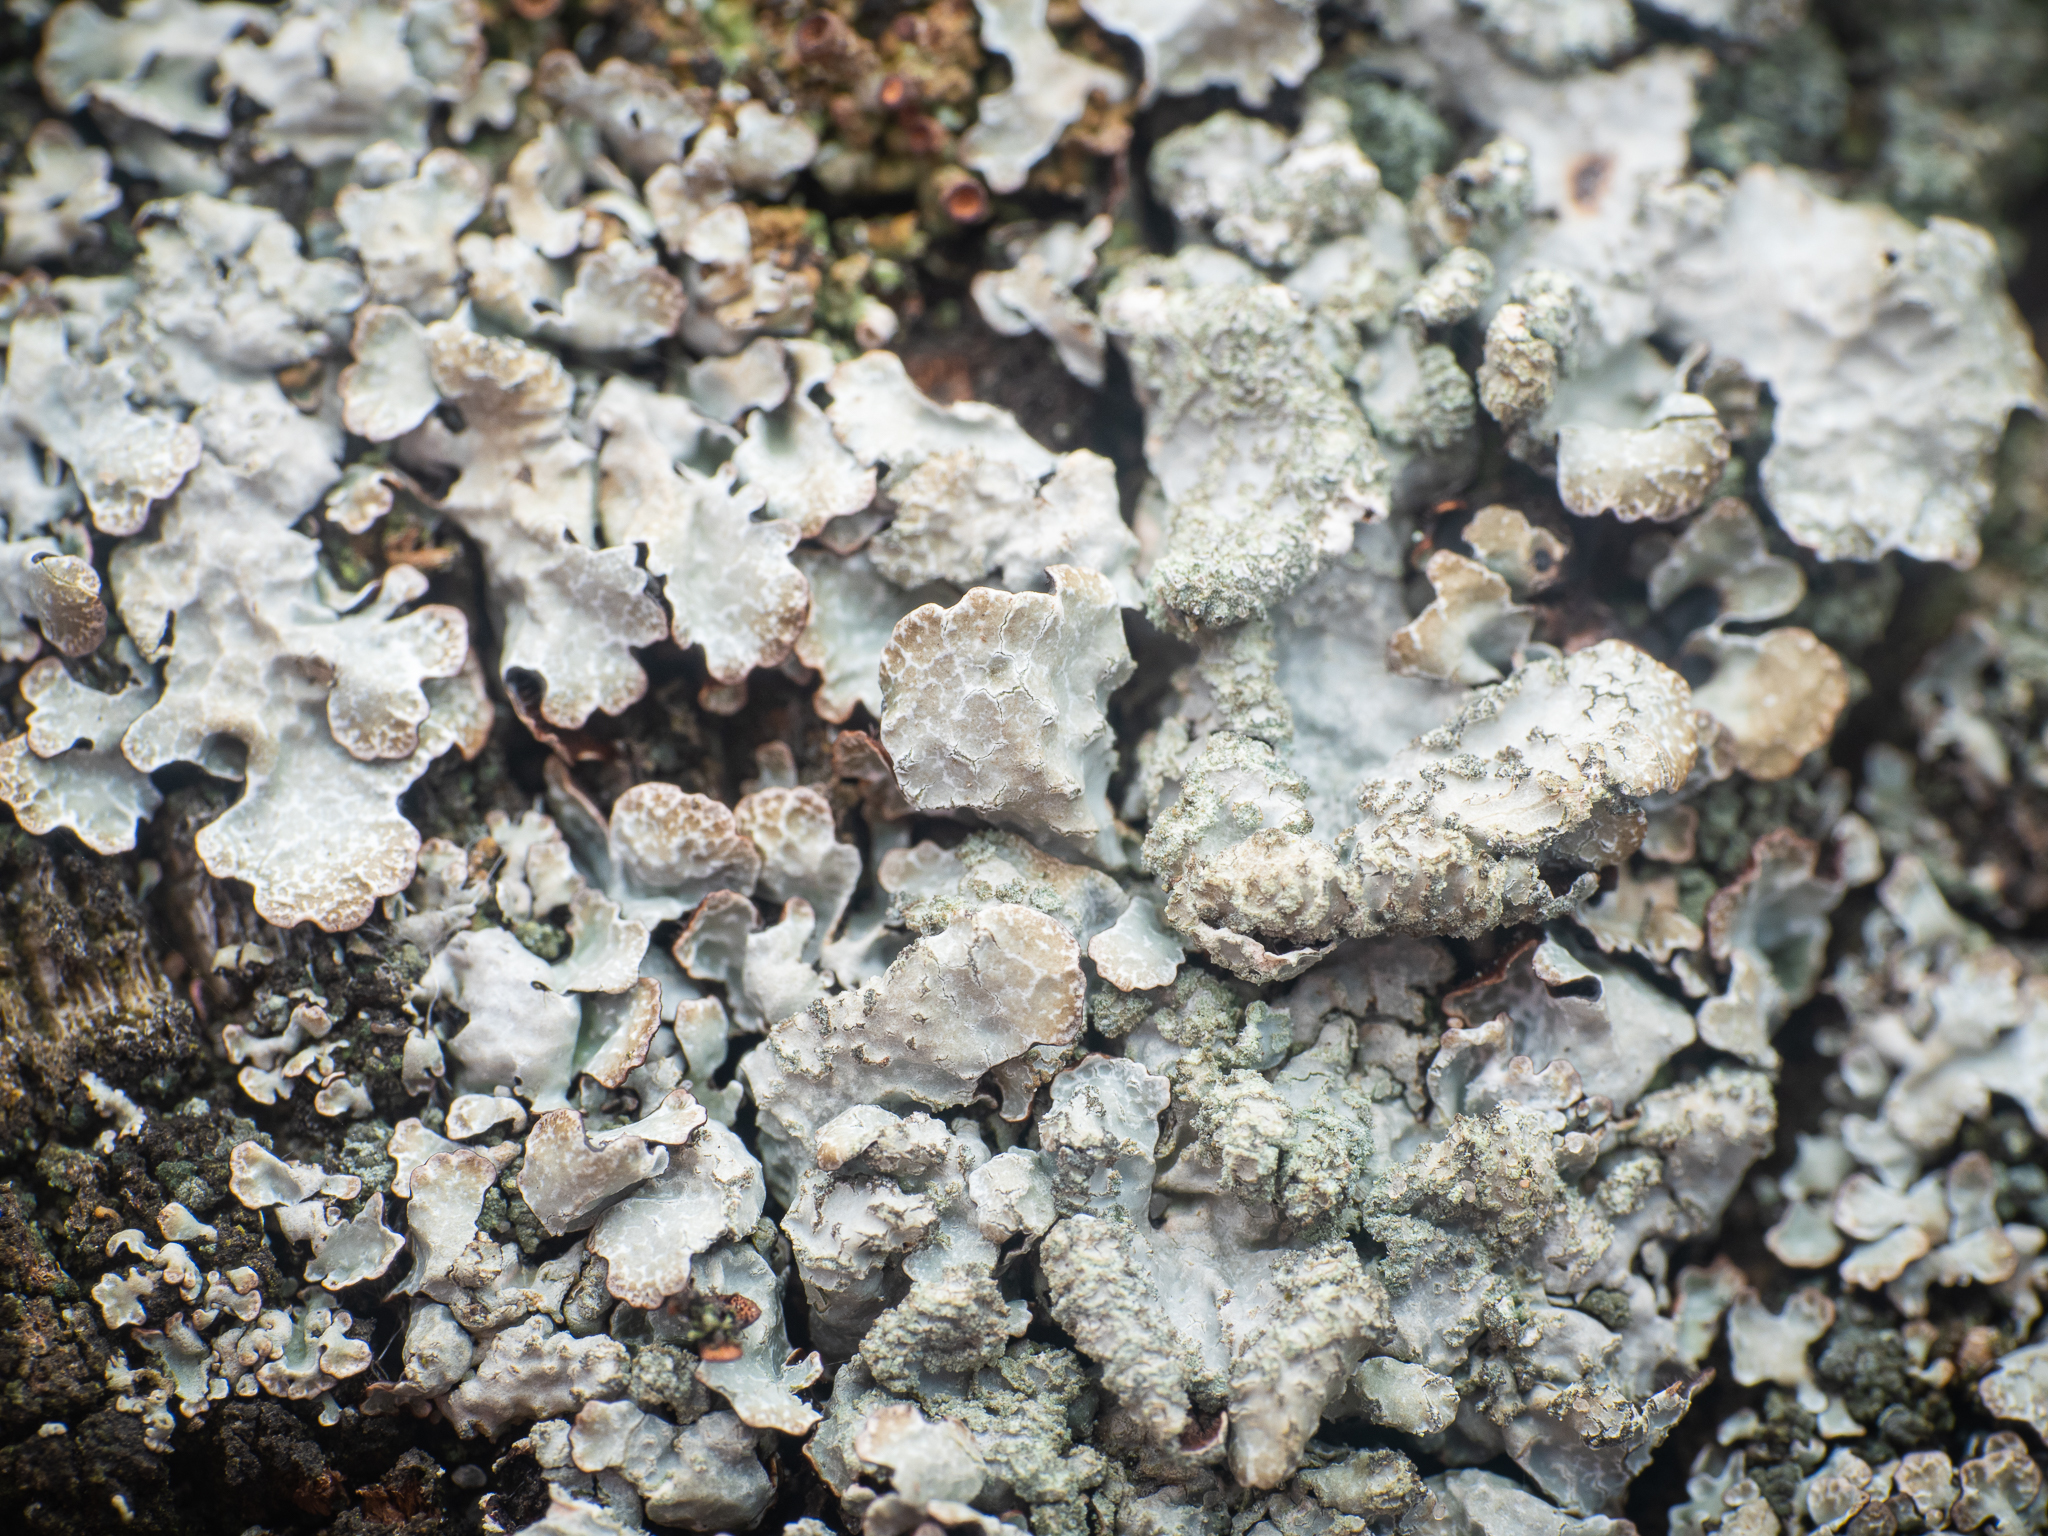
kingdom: Fungi
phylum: Ascomycota
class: Lecanoromycetes
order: Lecanorales
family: Parmeliaceae
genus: Parmelia
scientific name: Parmelia sulcata
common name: Netted shield lichen
